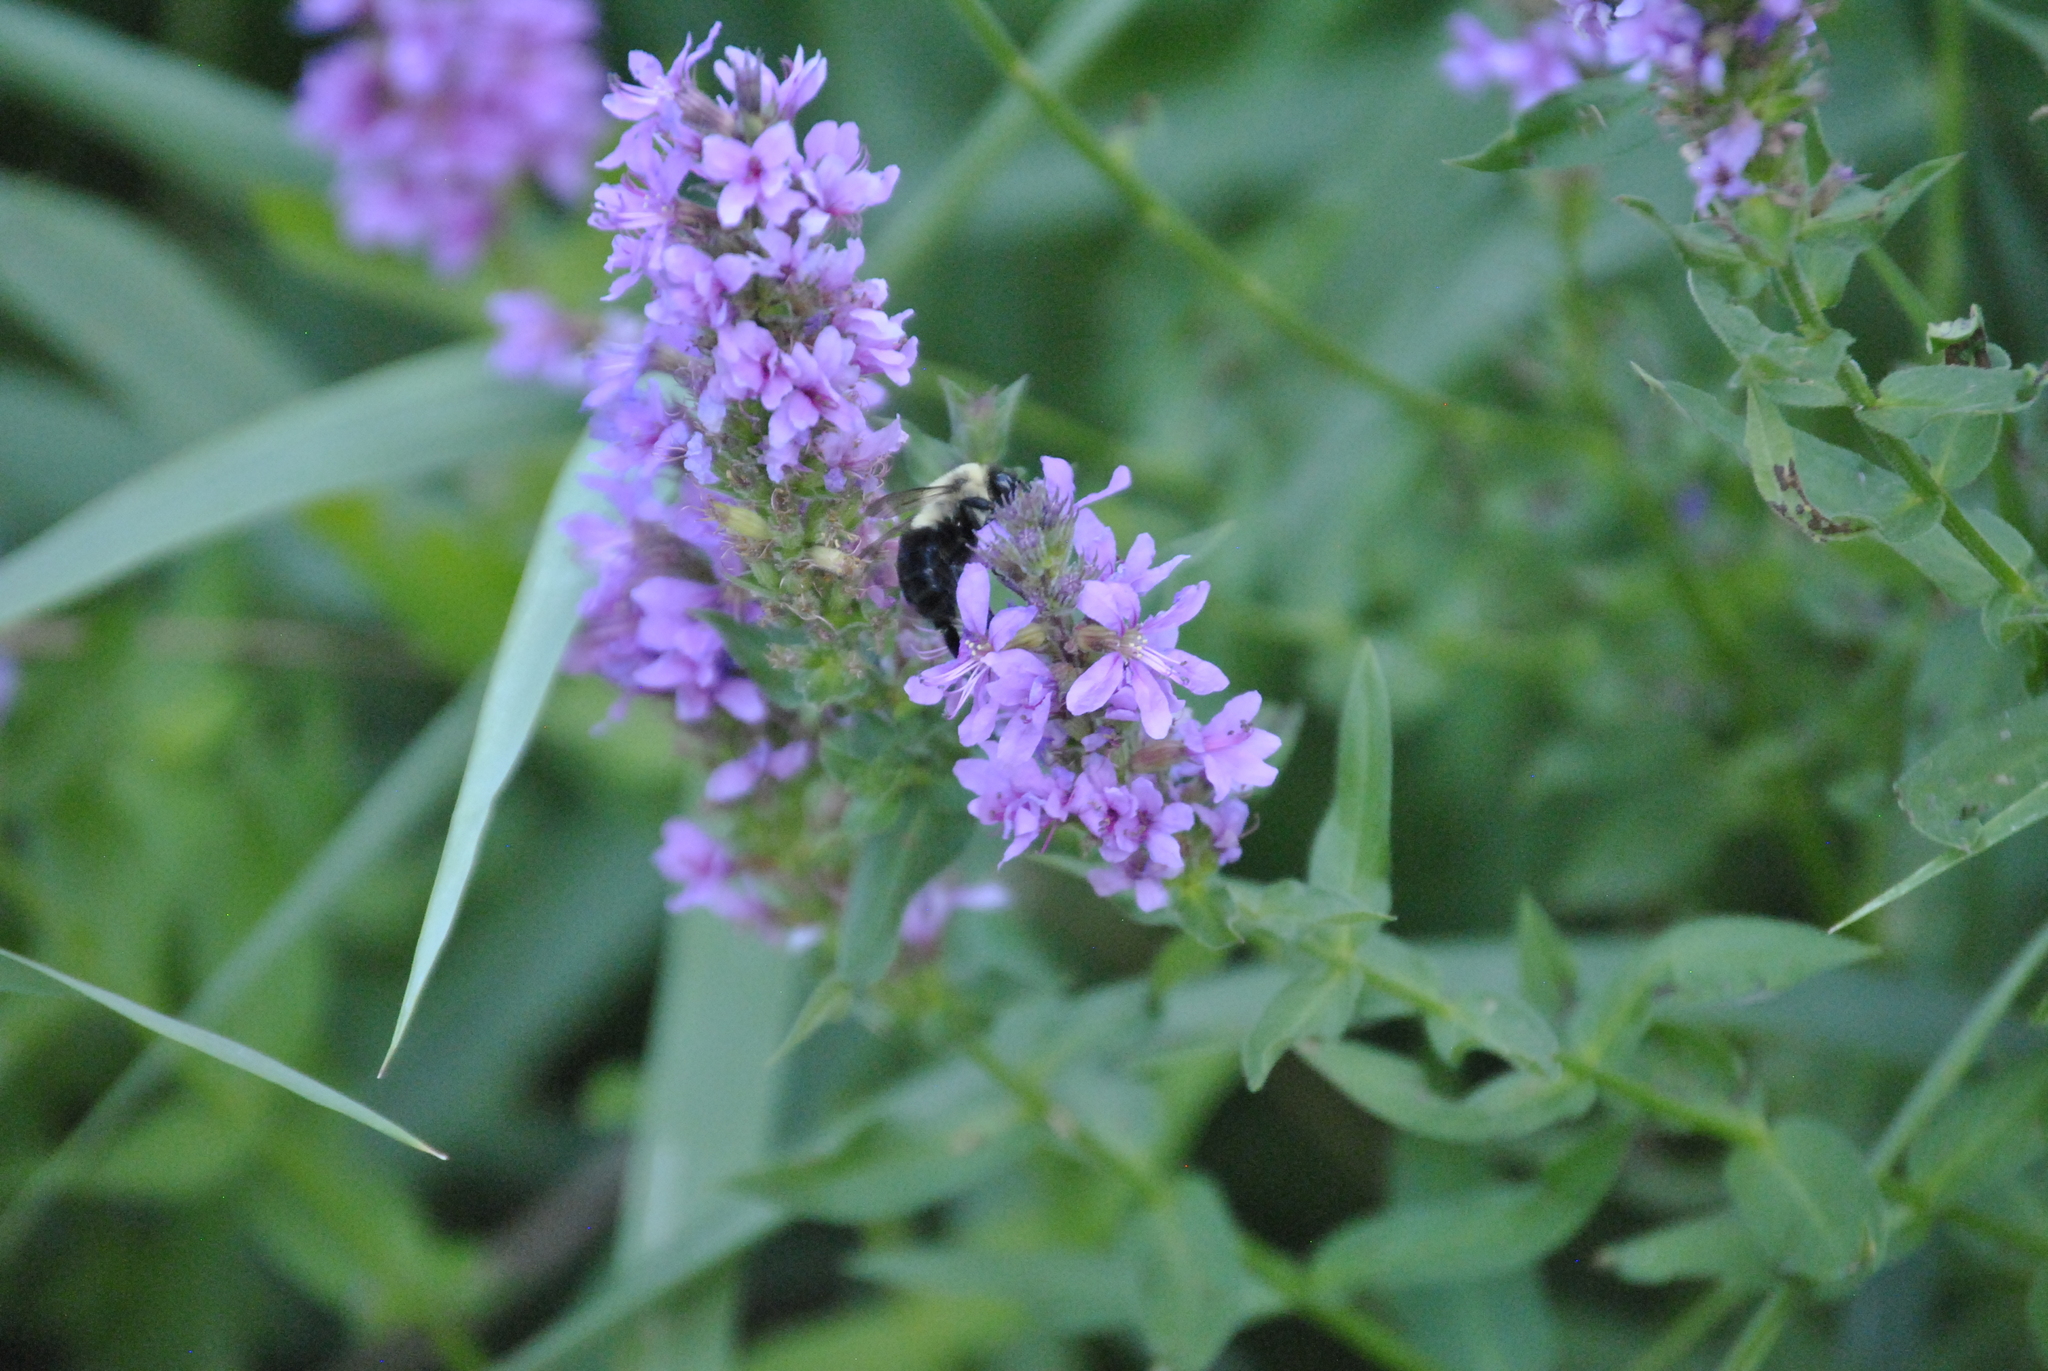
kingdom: Animalia
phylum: Arthropoda
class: Insecta
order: Hymenoptera
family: Apidae
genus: Bombus
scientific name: Bombus impatiens
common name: Common eastern bumble bee
